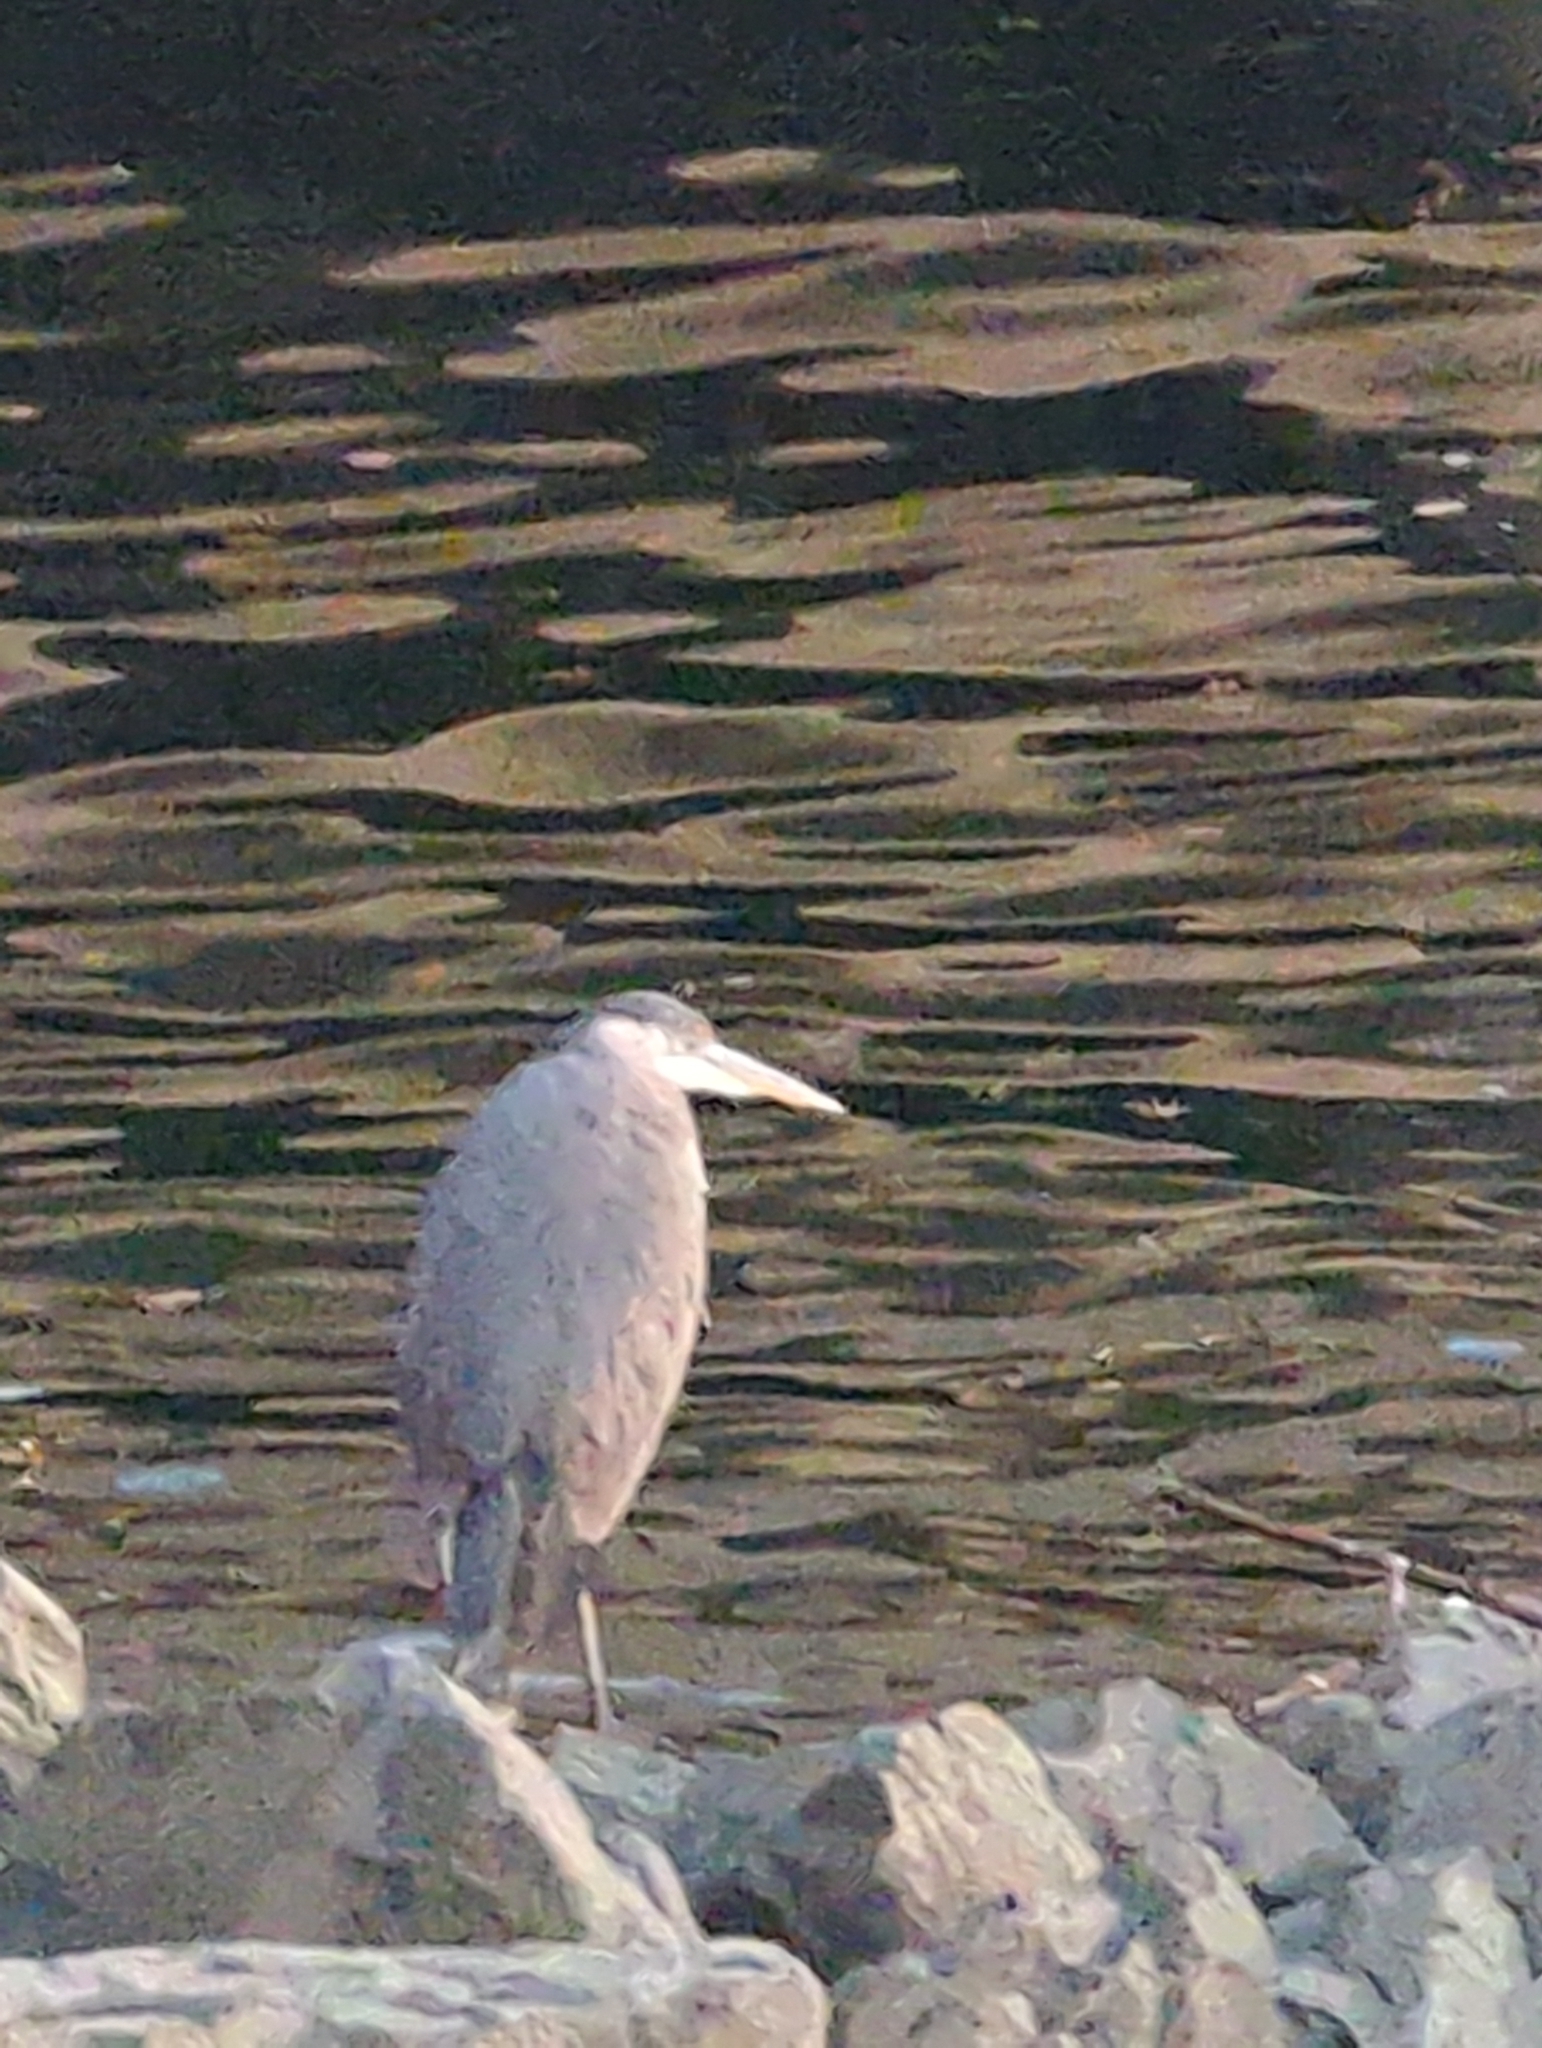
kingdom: Animalia
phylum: Chordata
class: Aves
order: Pelecaniformes
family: Ardeidae
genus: Ardea
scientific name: Ardea herodias
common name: Great blue heron
